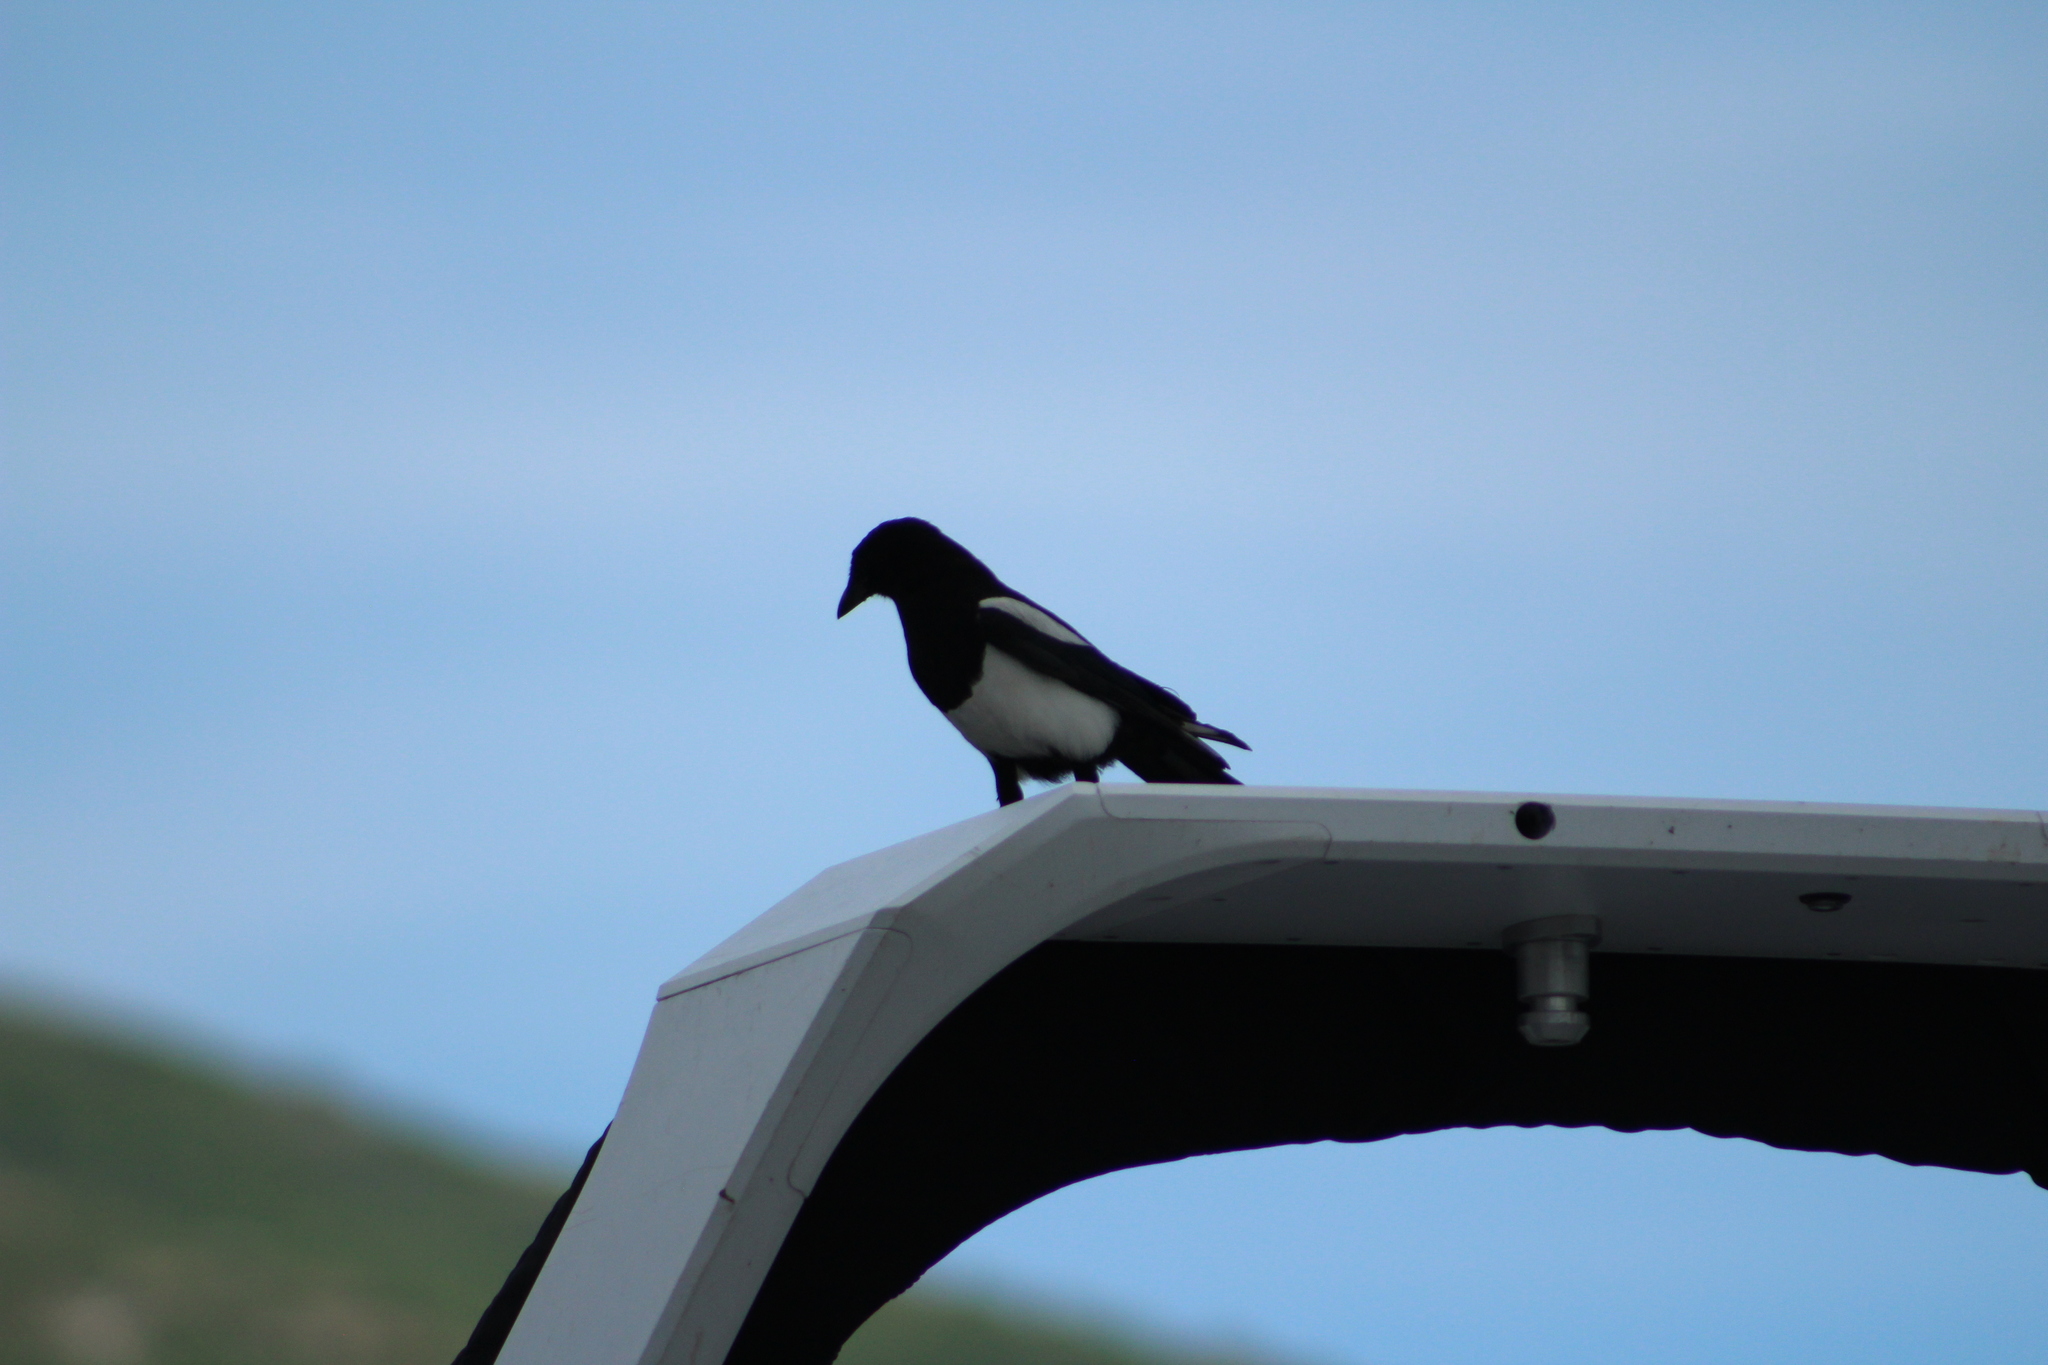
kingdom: Animalia
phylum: Chordata
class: Aves
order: Passeriformes
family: Corvidae
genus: Pica
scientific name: Pica hudsonia
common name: Black-billed magpie
